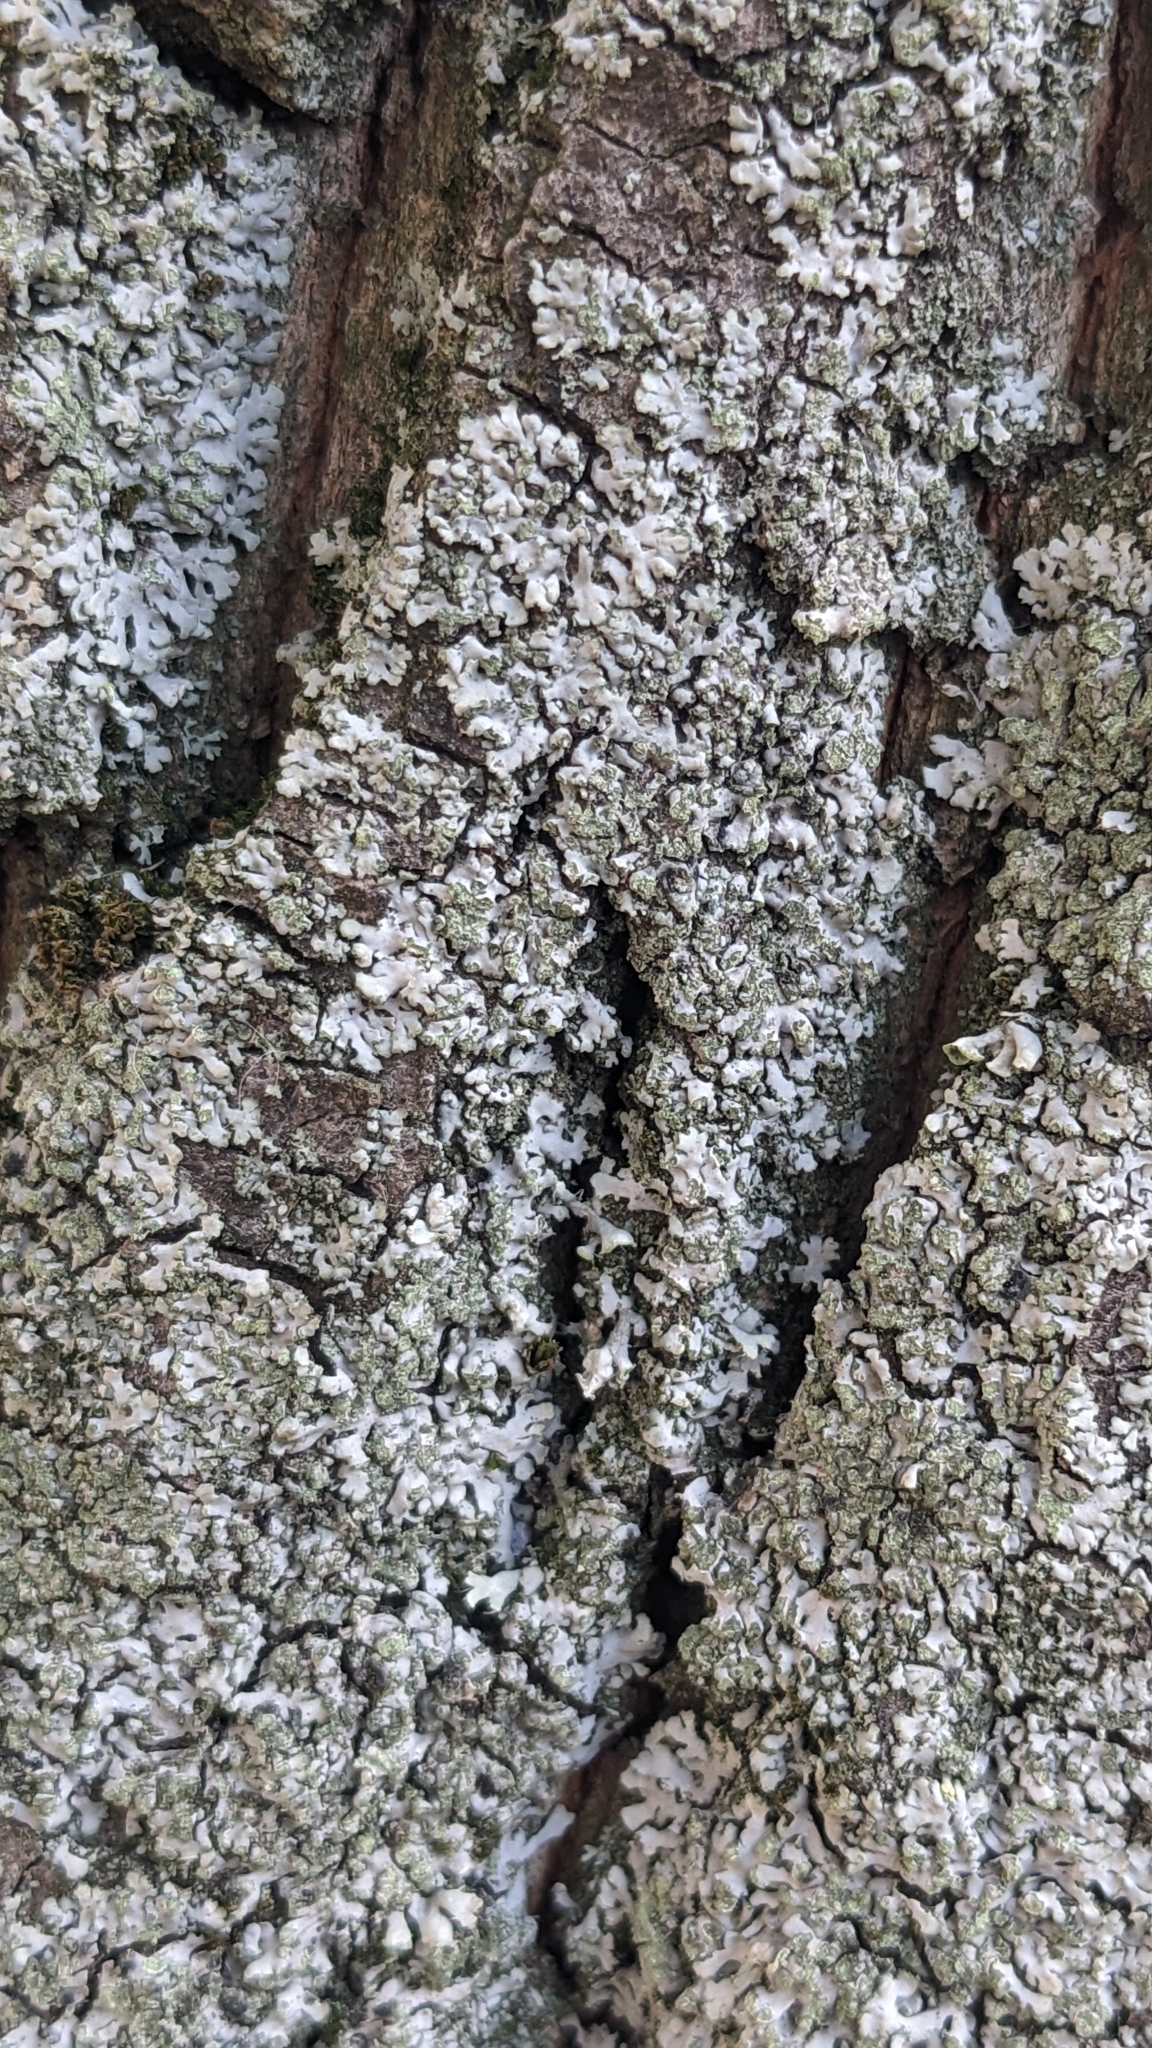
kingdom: Fungi
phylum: Ascomycota
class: Lecanoromycetes
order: Caliciales
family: Physciaceae
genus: Phaeophyscia
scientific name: Phaeophyscia orbicularis
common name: Mealy shadow lichen
